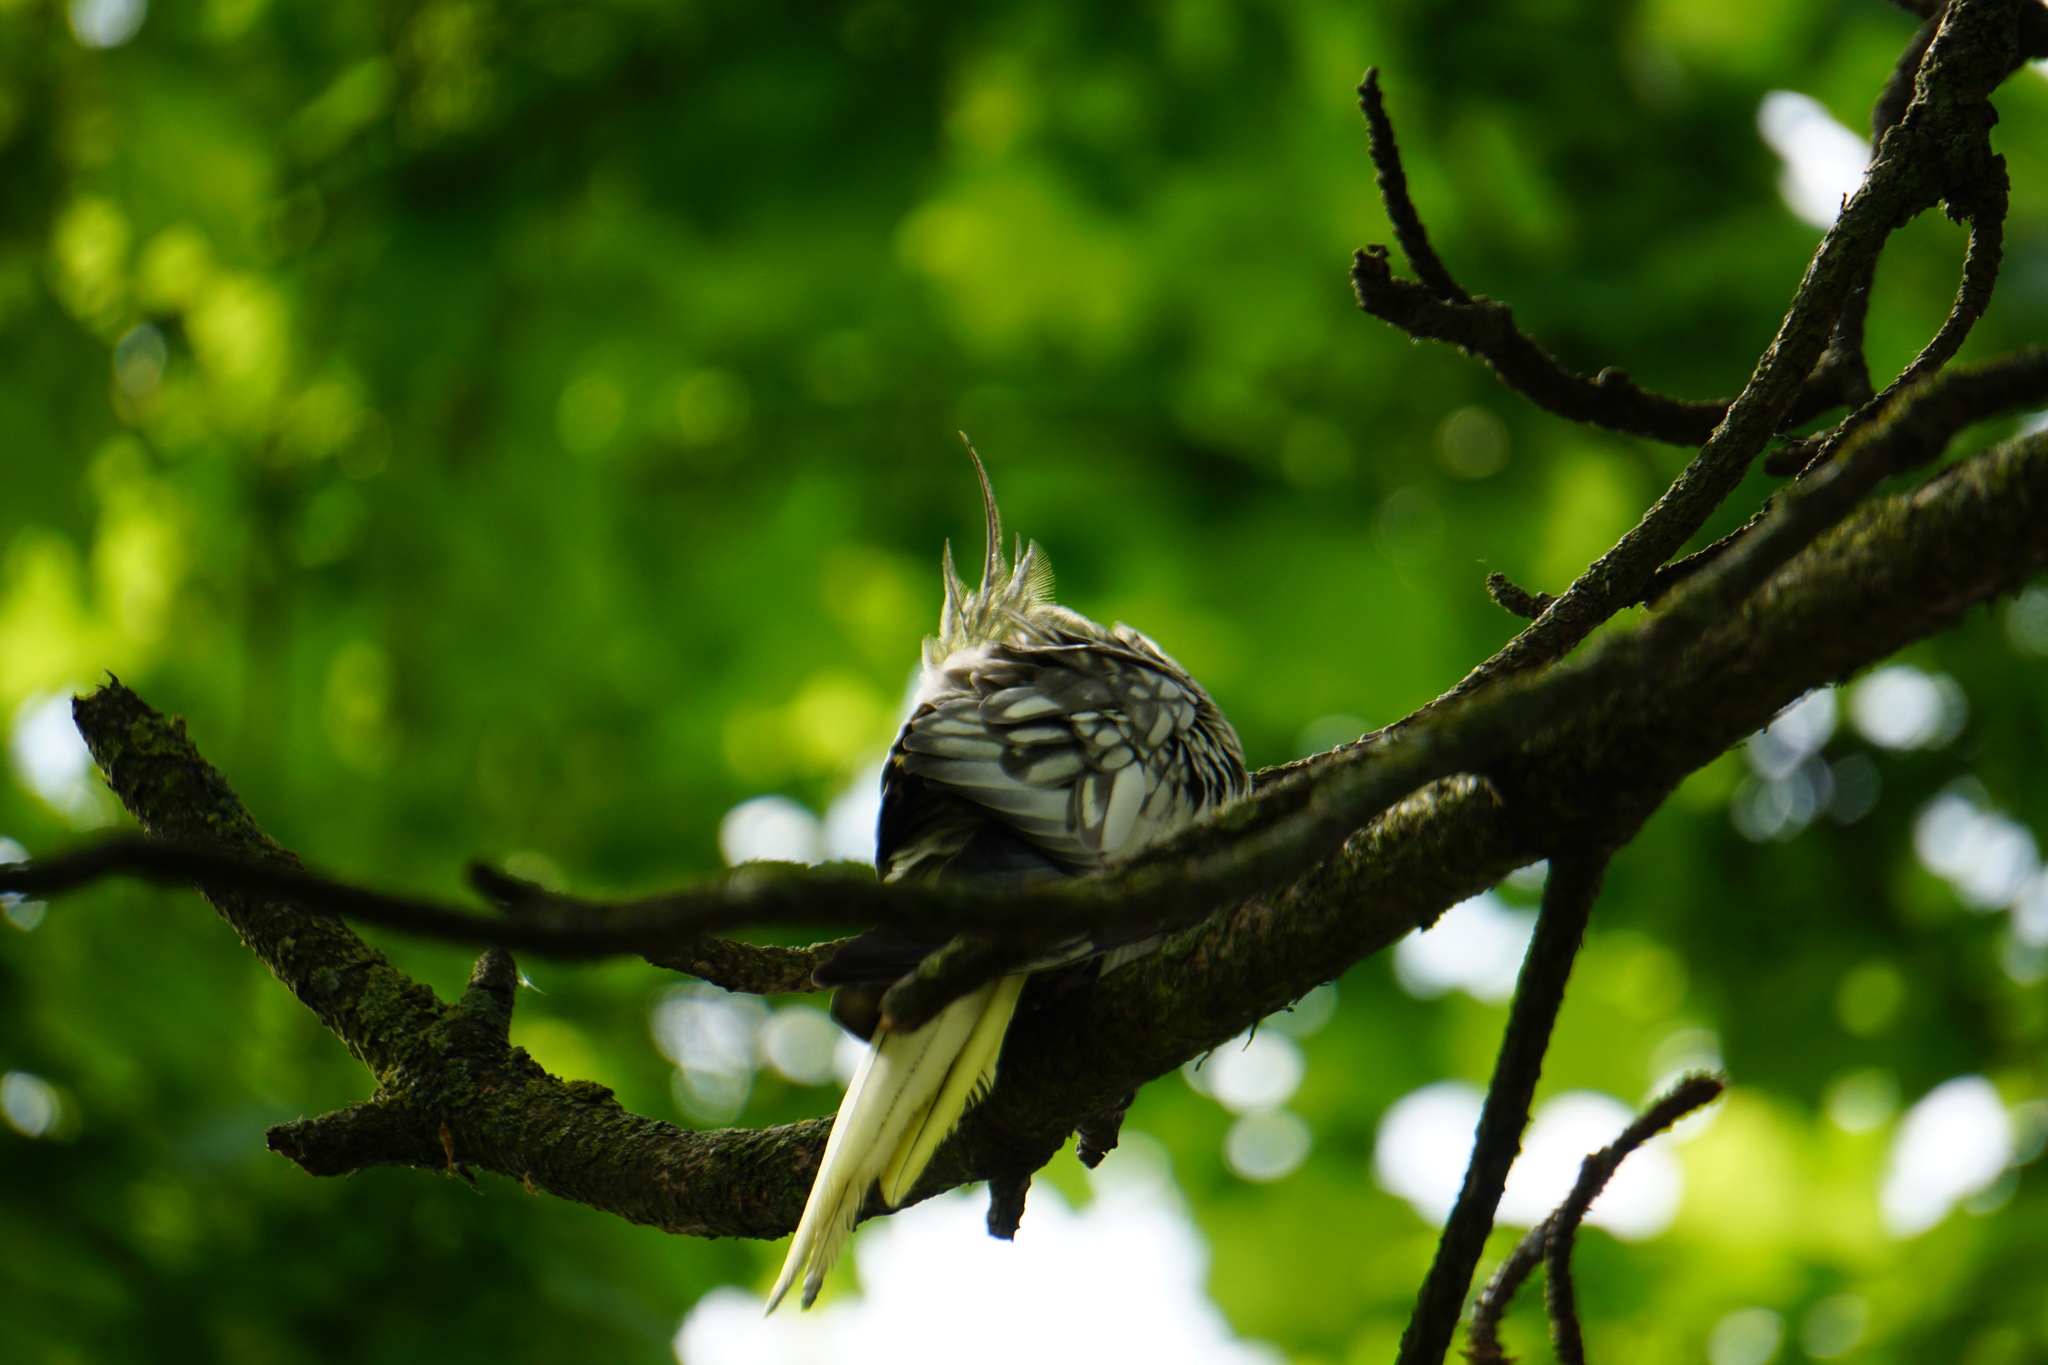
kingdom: Animalia
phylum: Chordata
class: Aves
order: Psittaciformes
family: Psittacidae
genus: Nymphicus
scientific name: Nymphicus hollandicus
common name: Cockatiel
